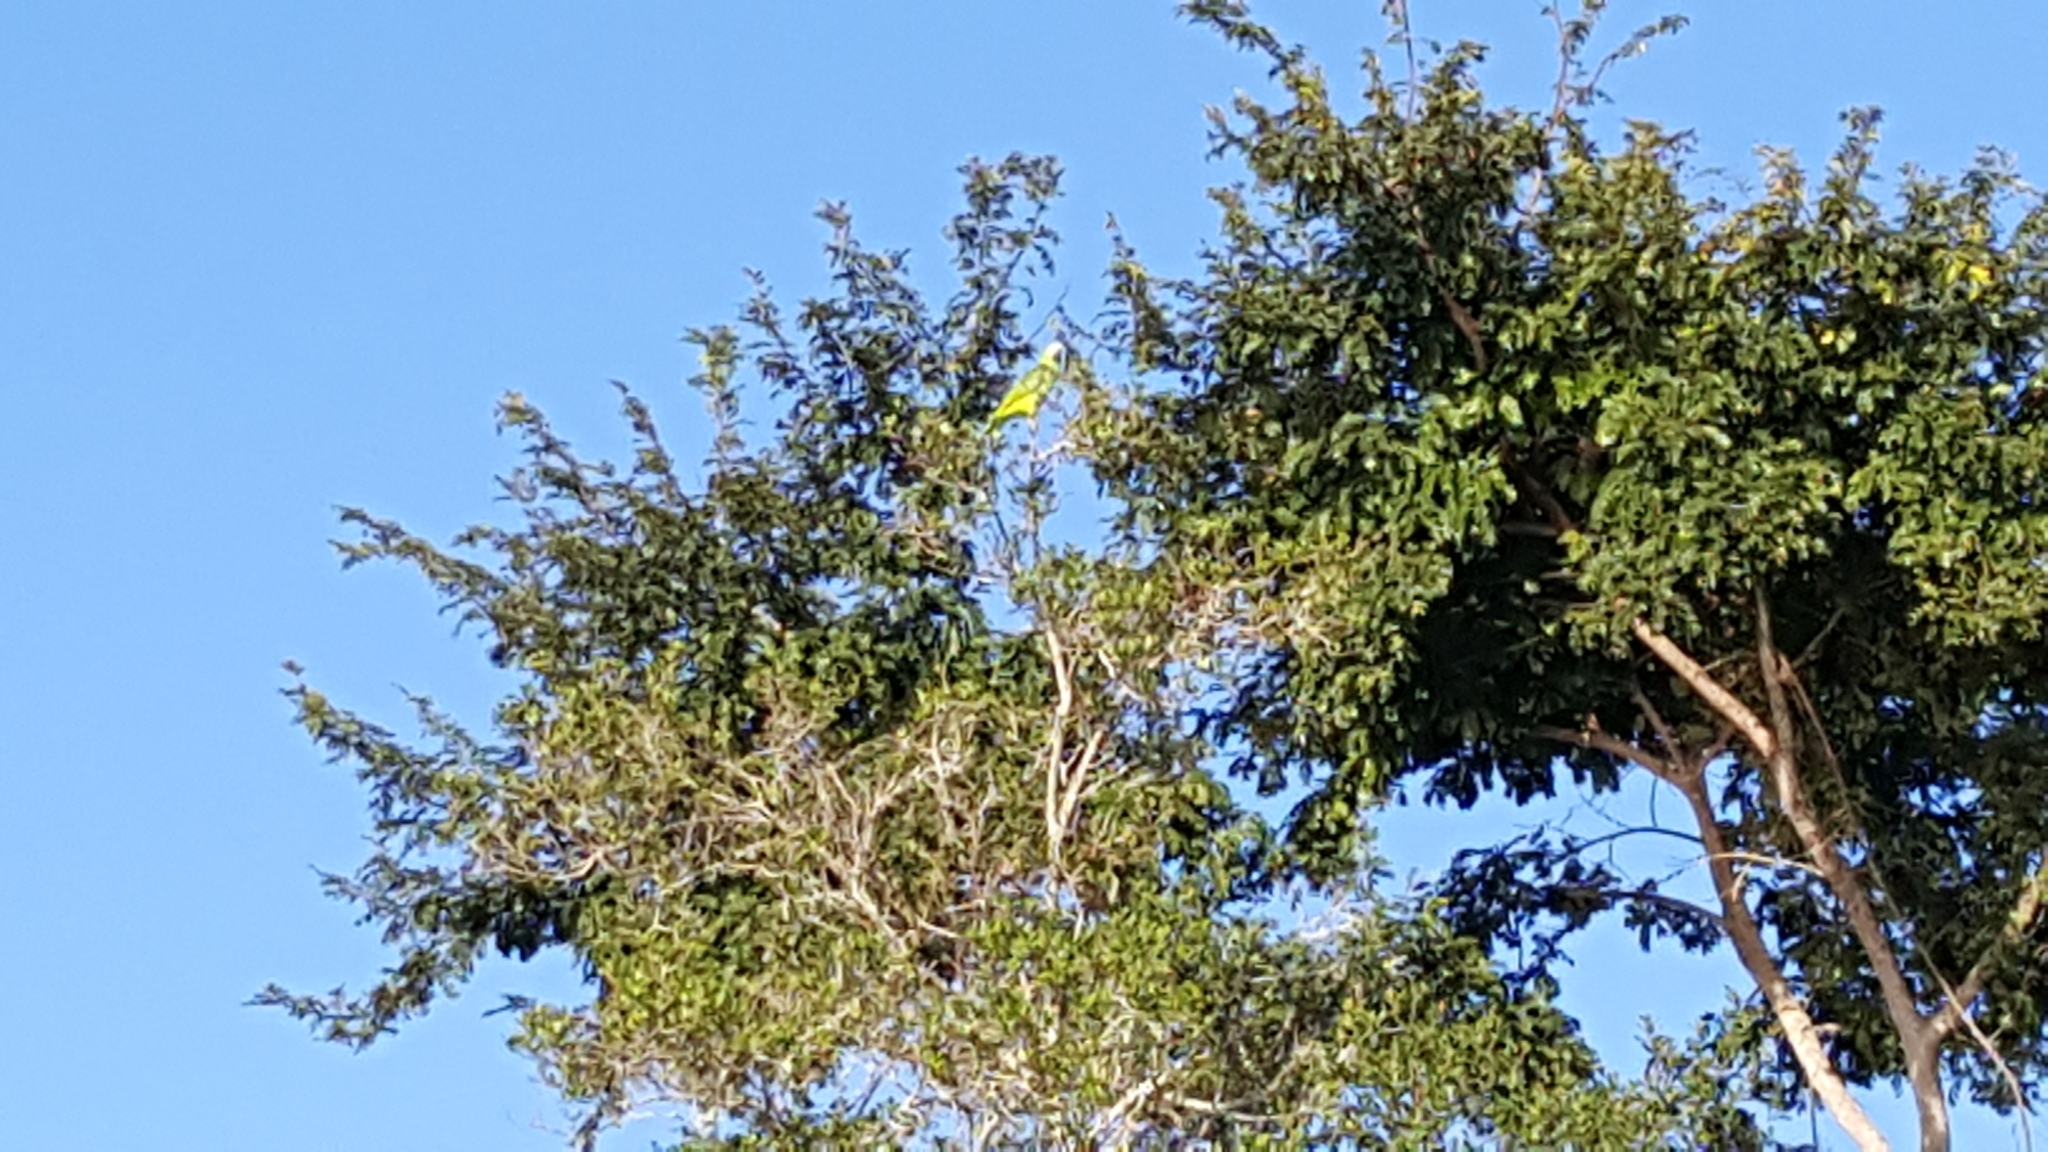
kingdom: Animalia
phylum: Chordata
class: Aves
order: Psittaciformes
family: Psittacidae
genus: Amazona
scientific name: Amazona
